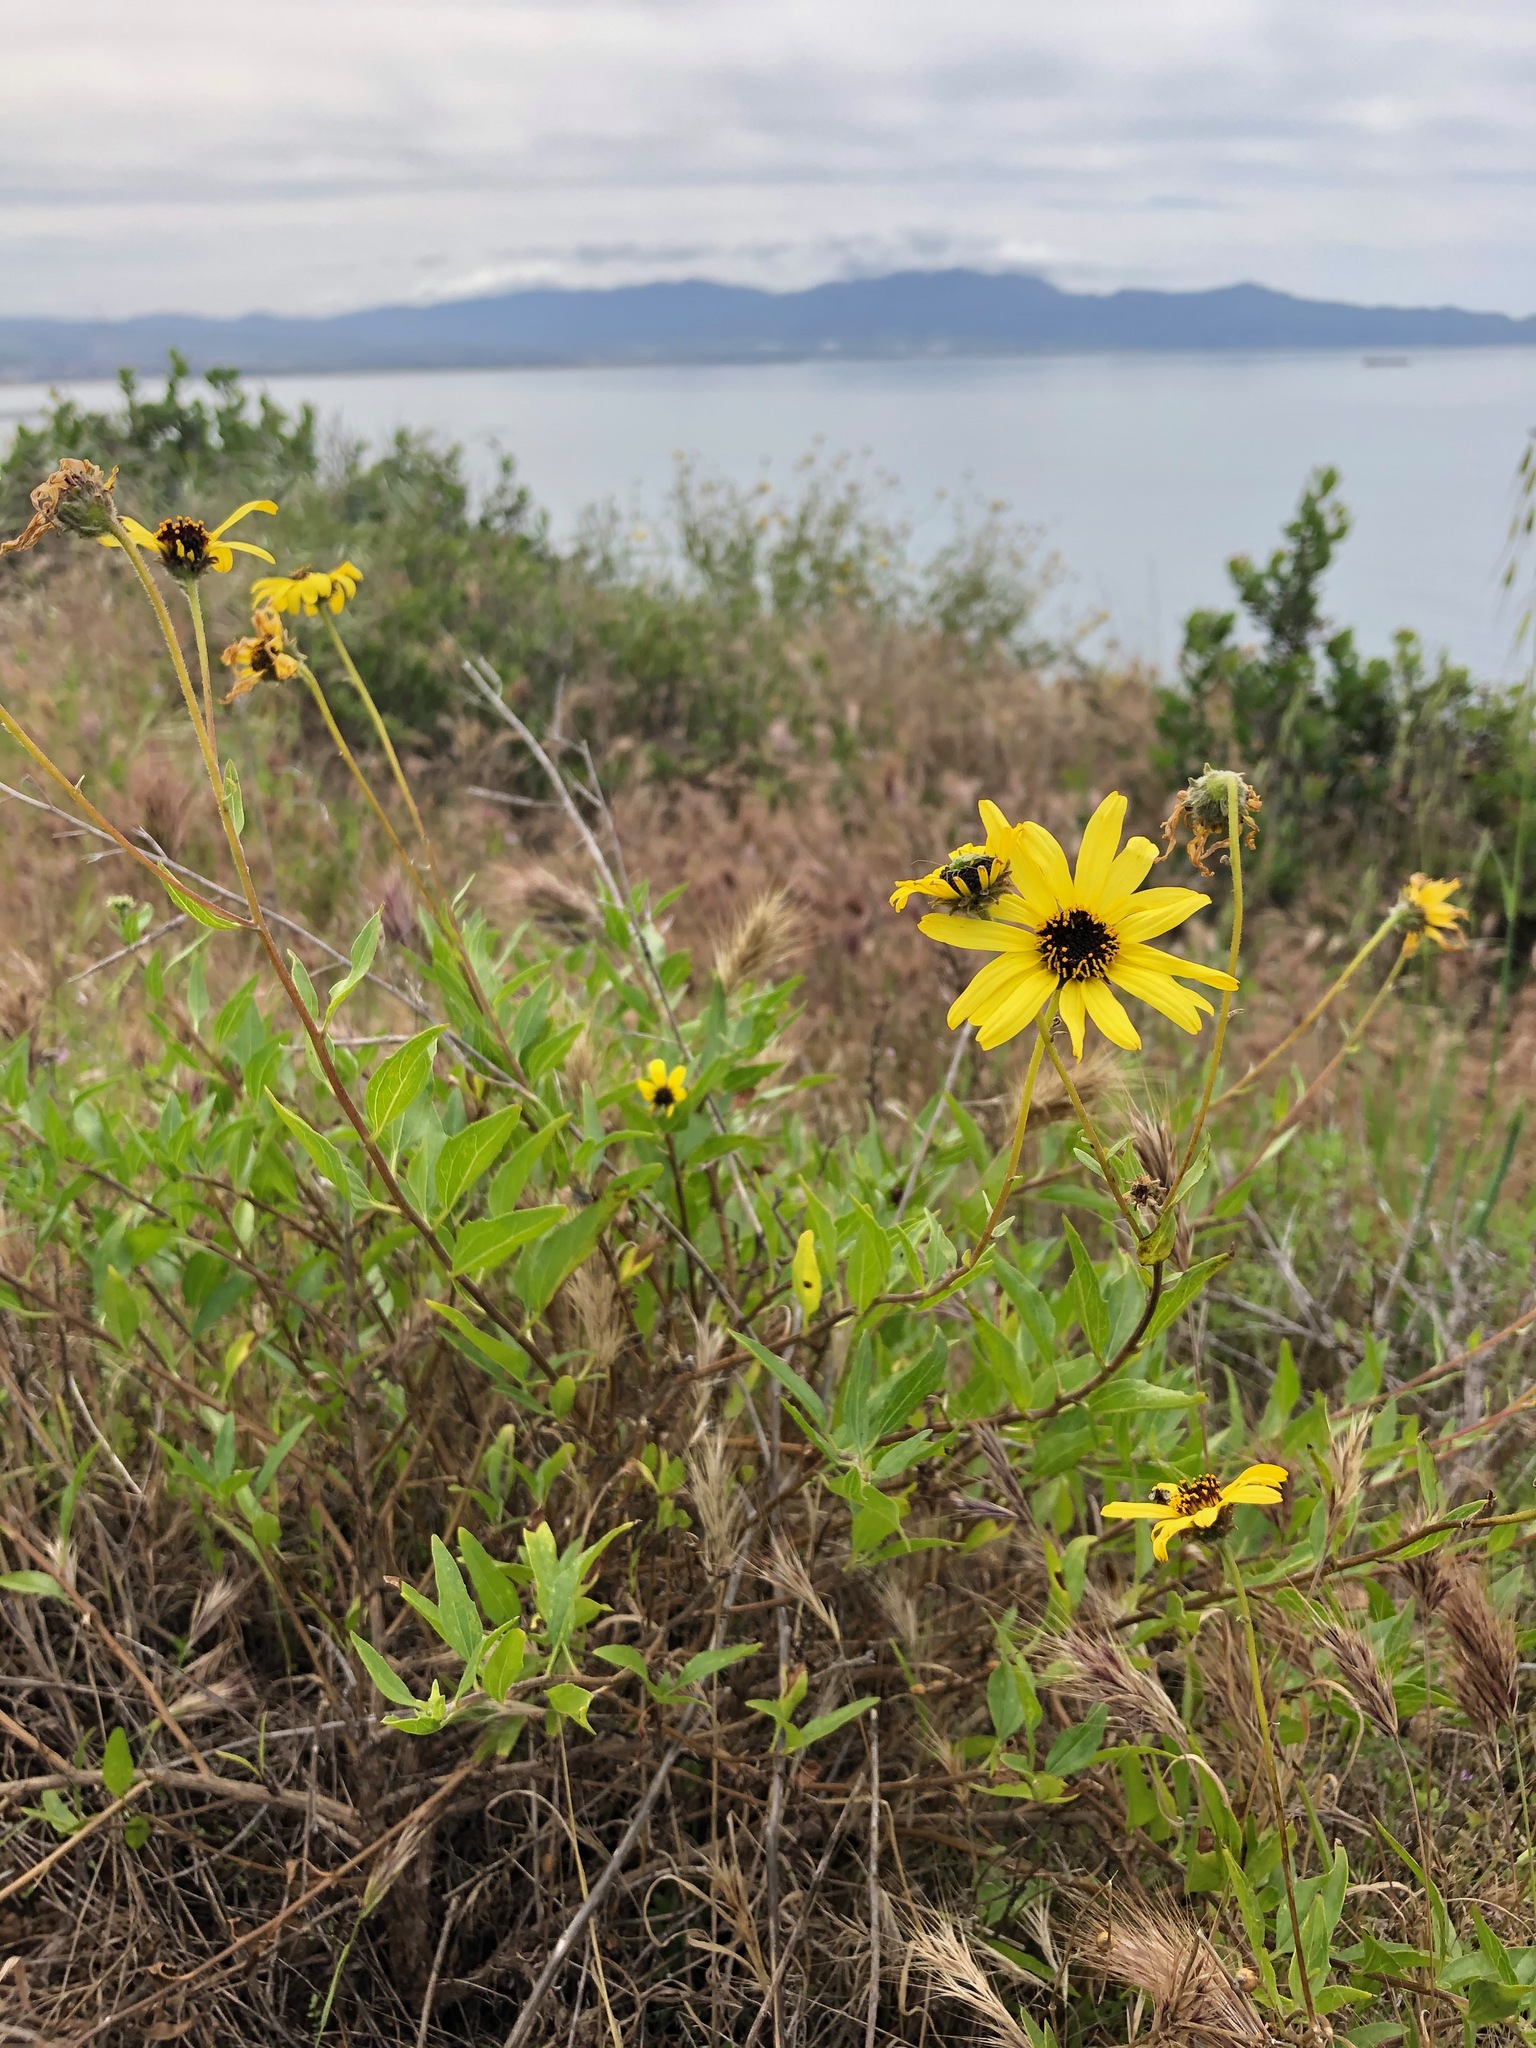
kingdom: Plantae
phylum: Tracheophyta
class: Magnoliopsida
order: Asterales
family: Asteraceae
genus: Encelia
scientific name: Encelia californica
